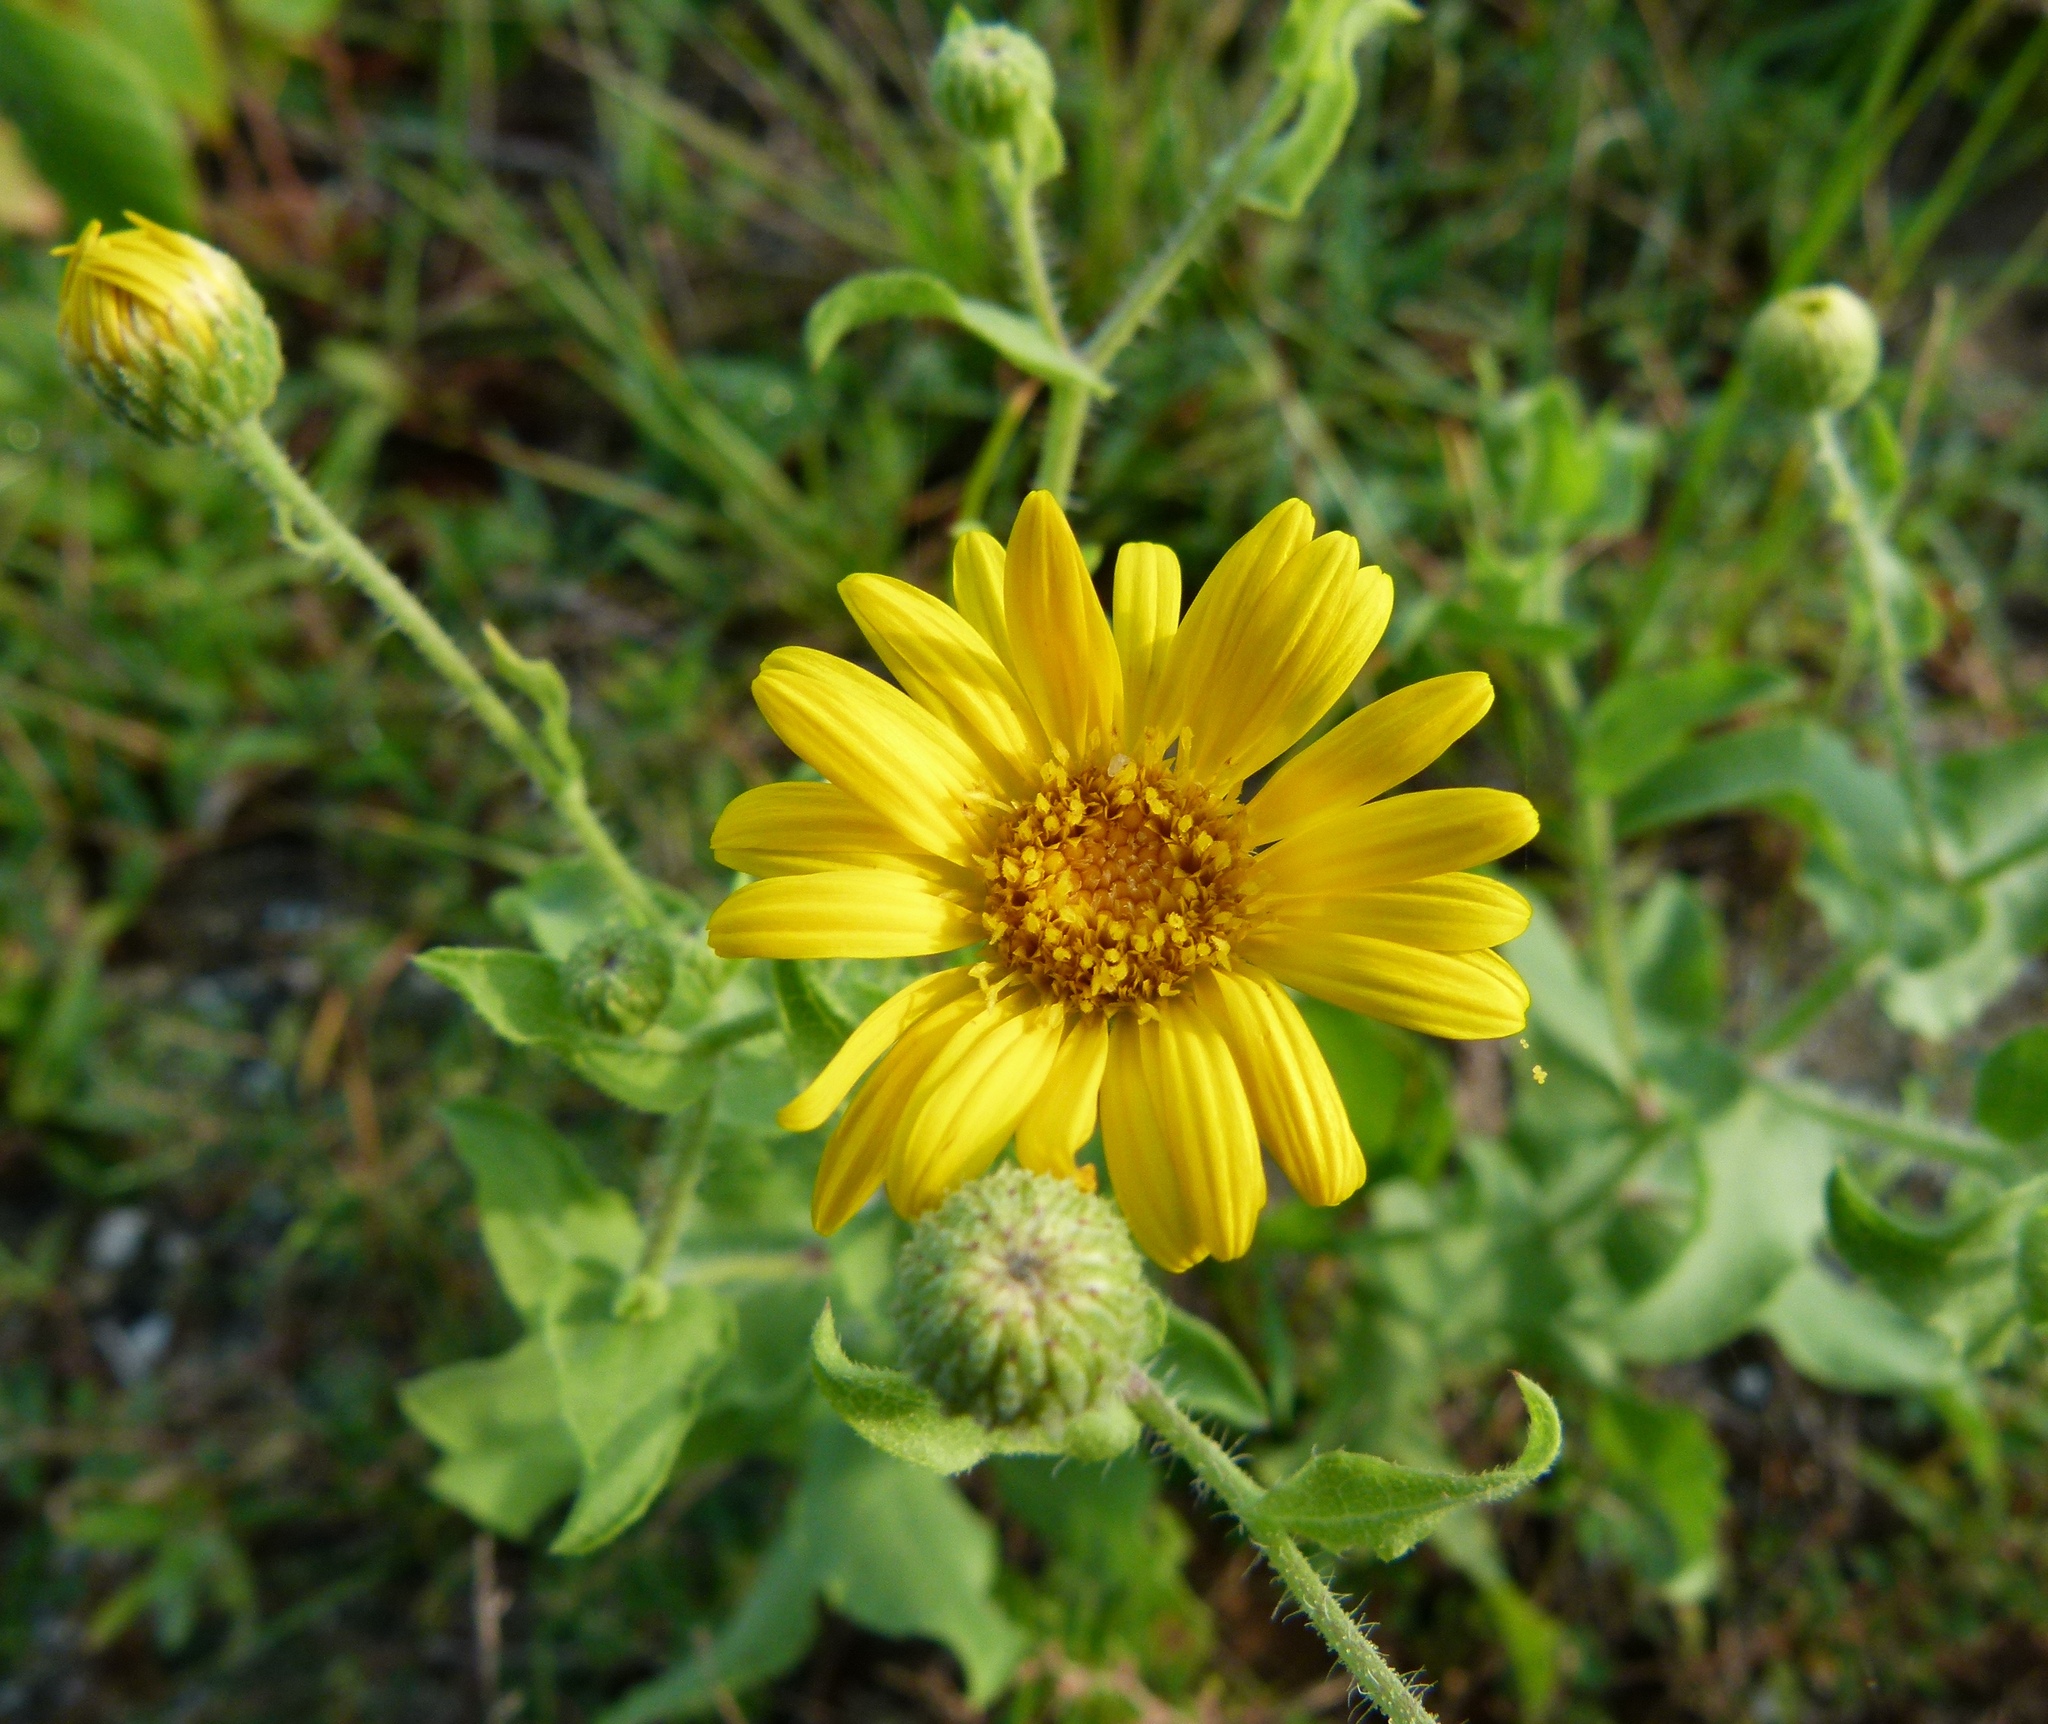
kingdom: Plantae
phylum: Tracheophyta
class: Magnoliopsida
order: Asterales
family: Asteraceae
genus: Heterotheca
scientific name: Heterotheca subaxillaris
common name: Camphorweed
